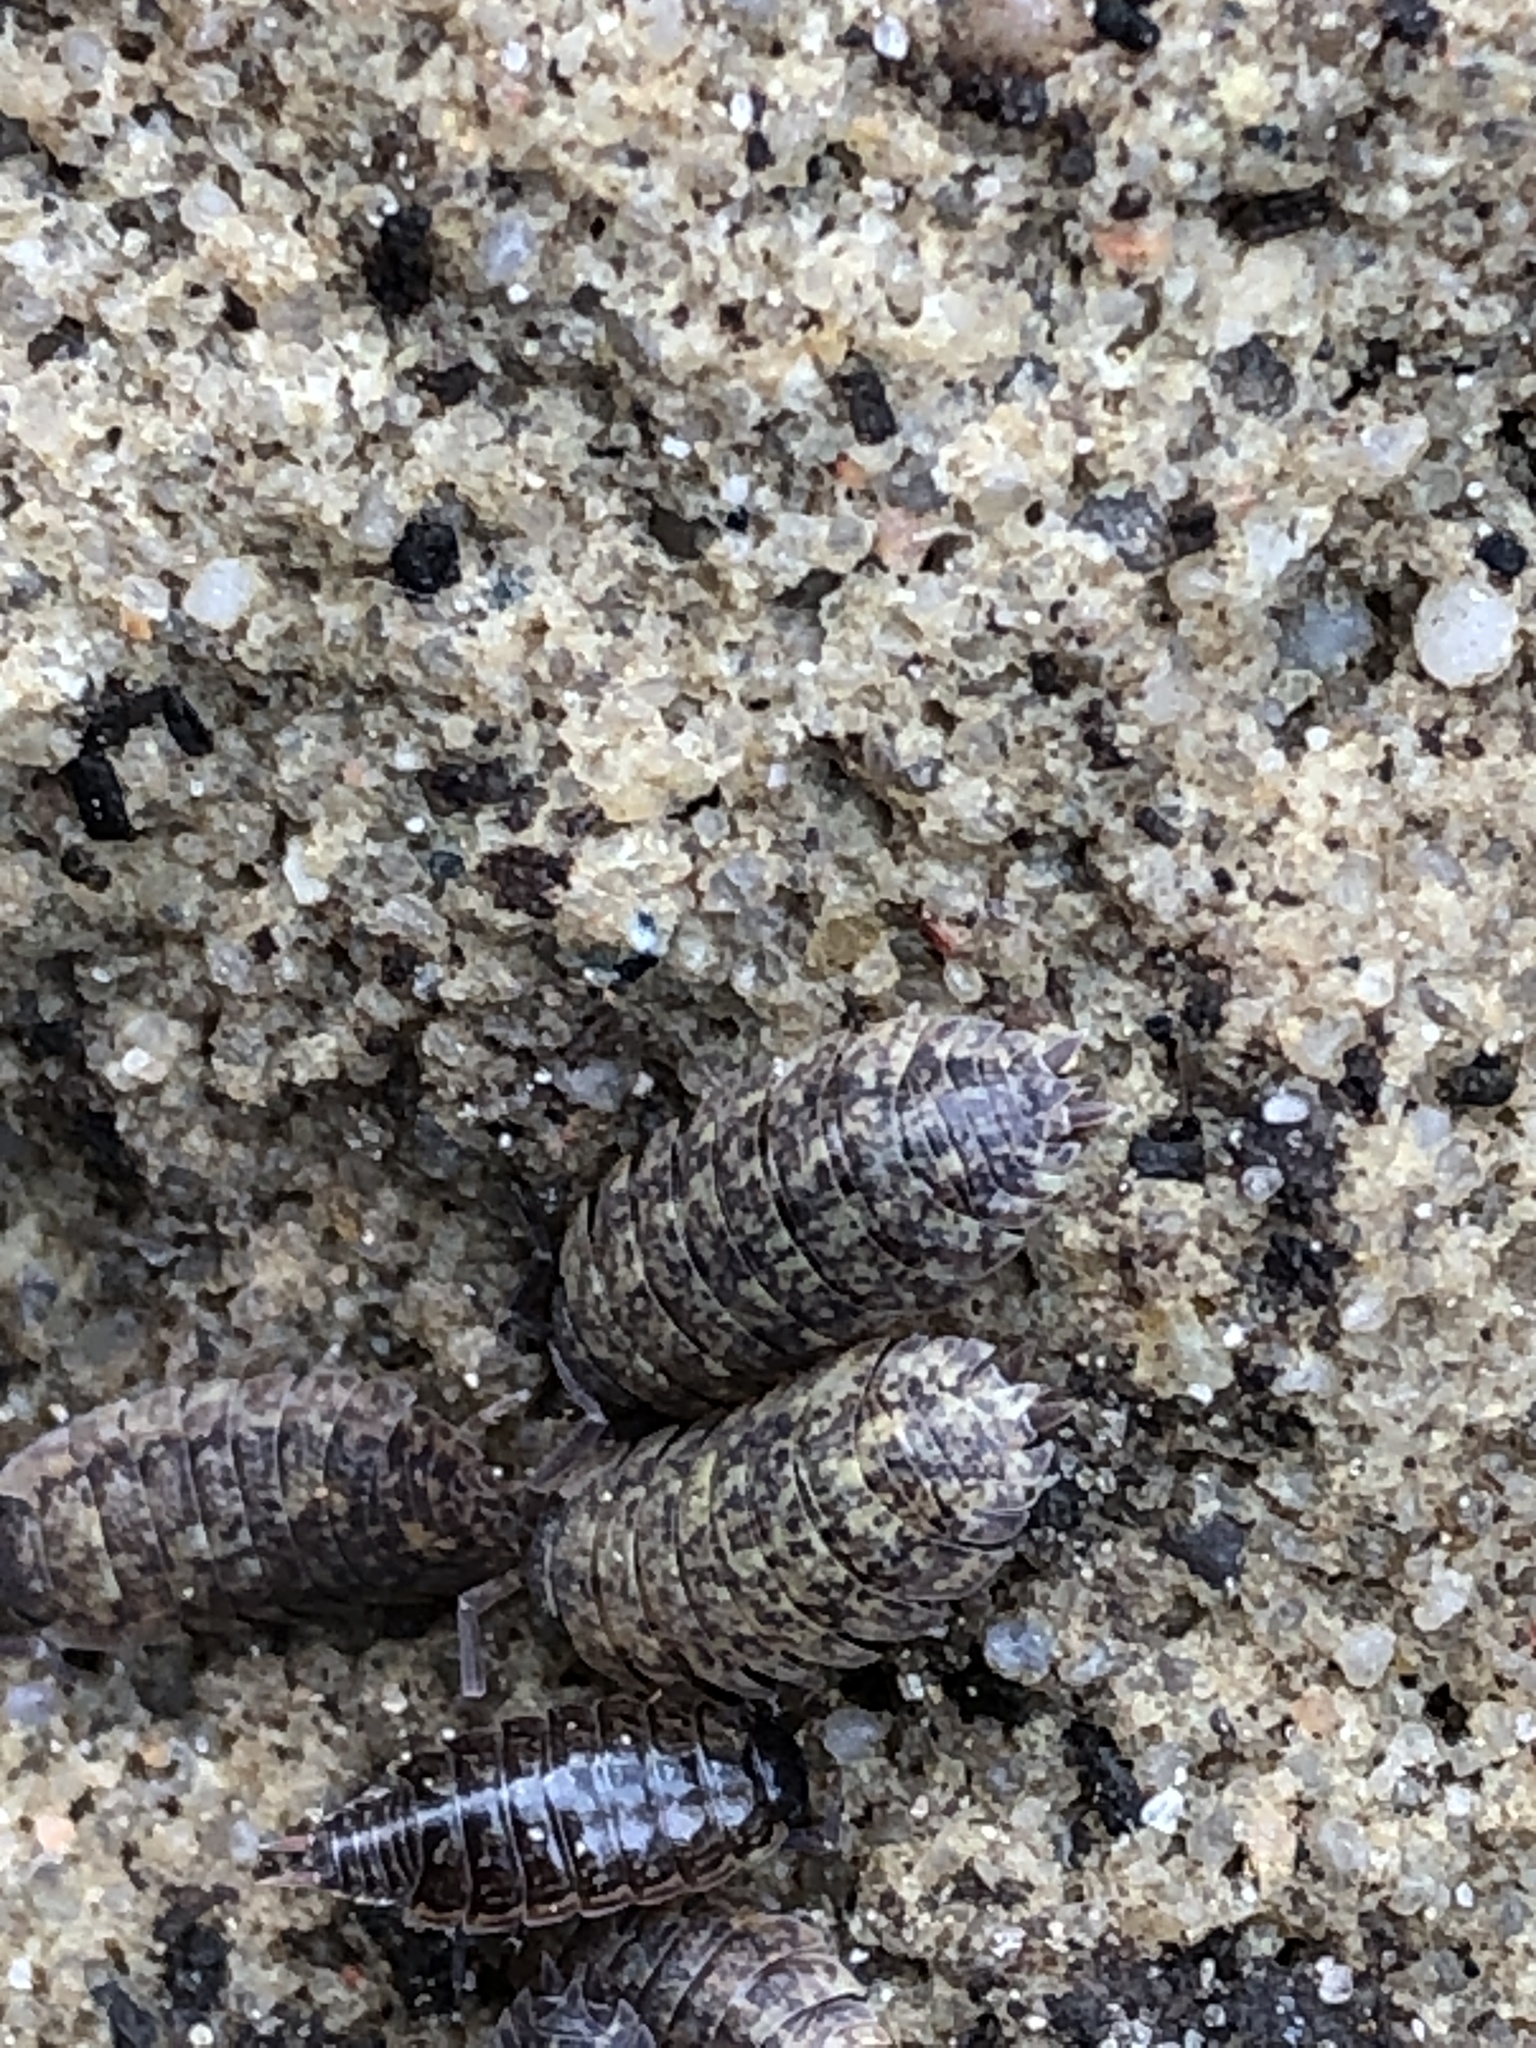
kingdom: Animalia
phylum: Arthropoda
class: Malacostraca
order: Isopoda
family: Philosciidae
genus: Philoscia
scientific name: Philoscia muscorum
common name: Common striped woodlouse
